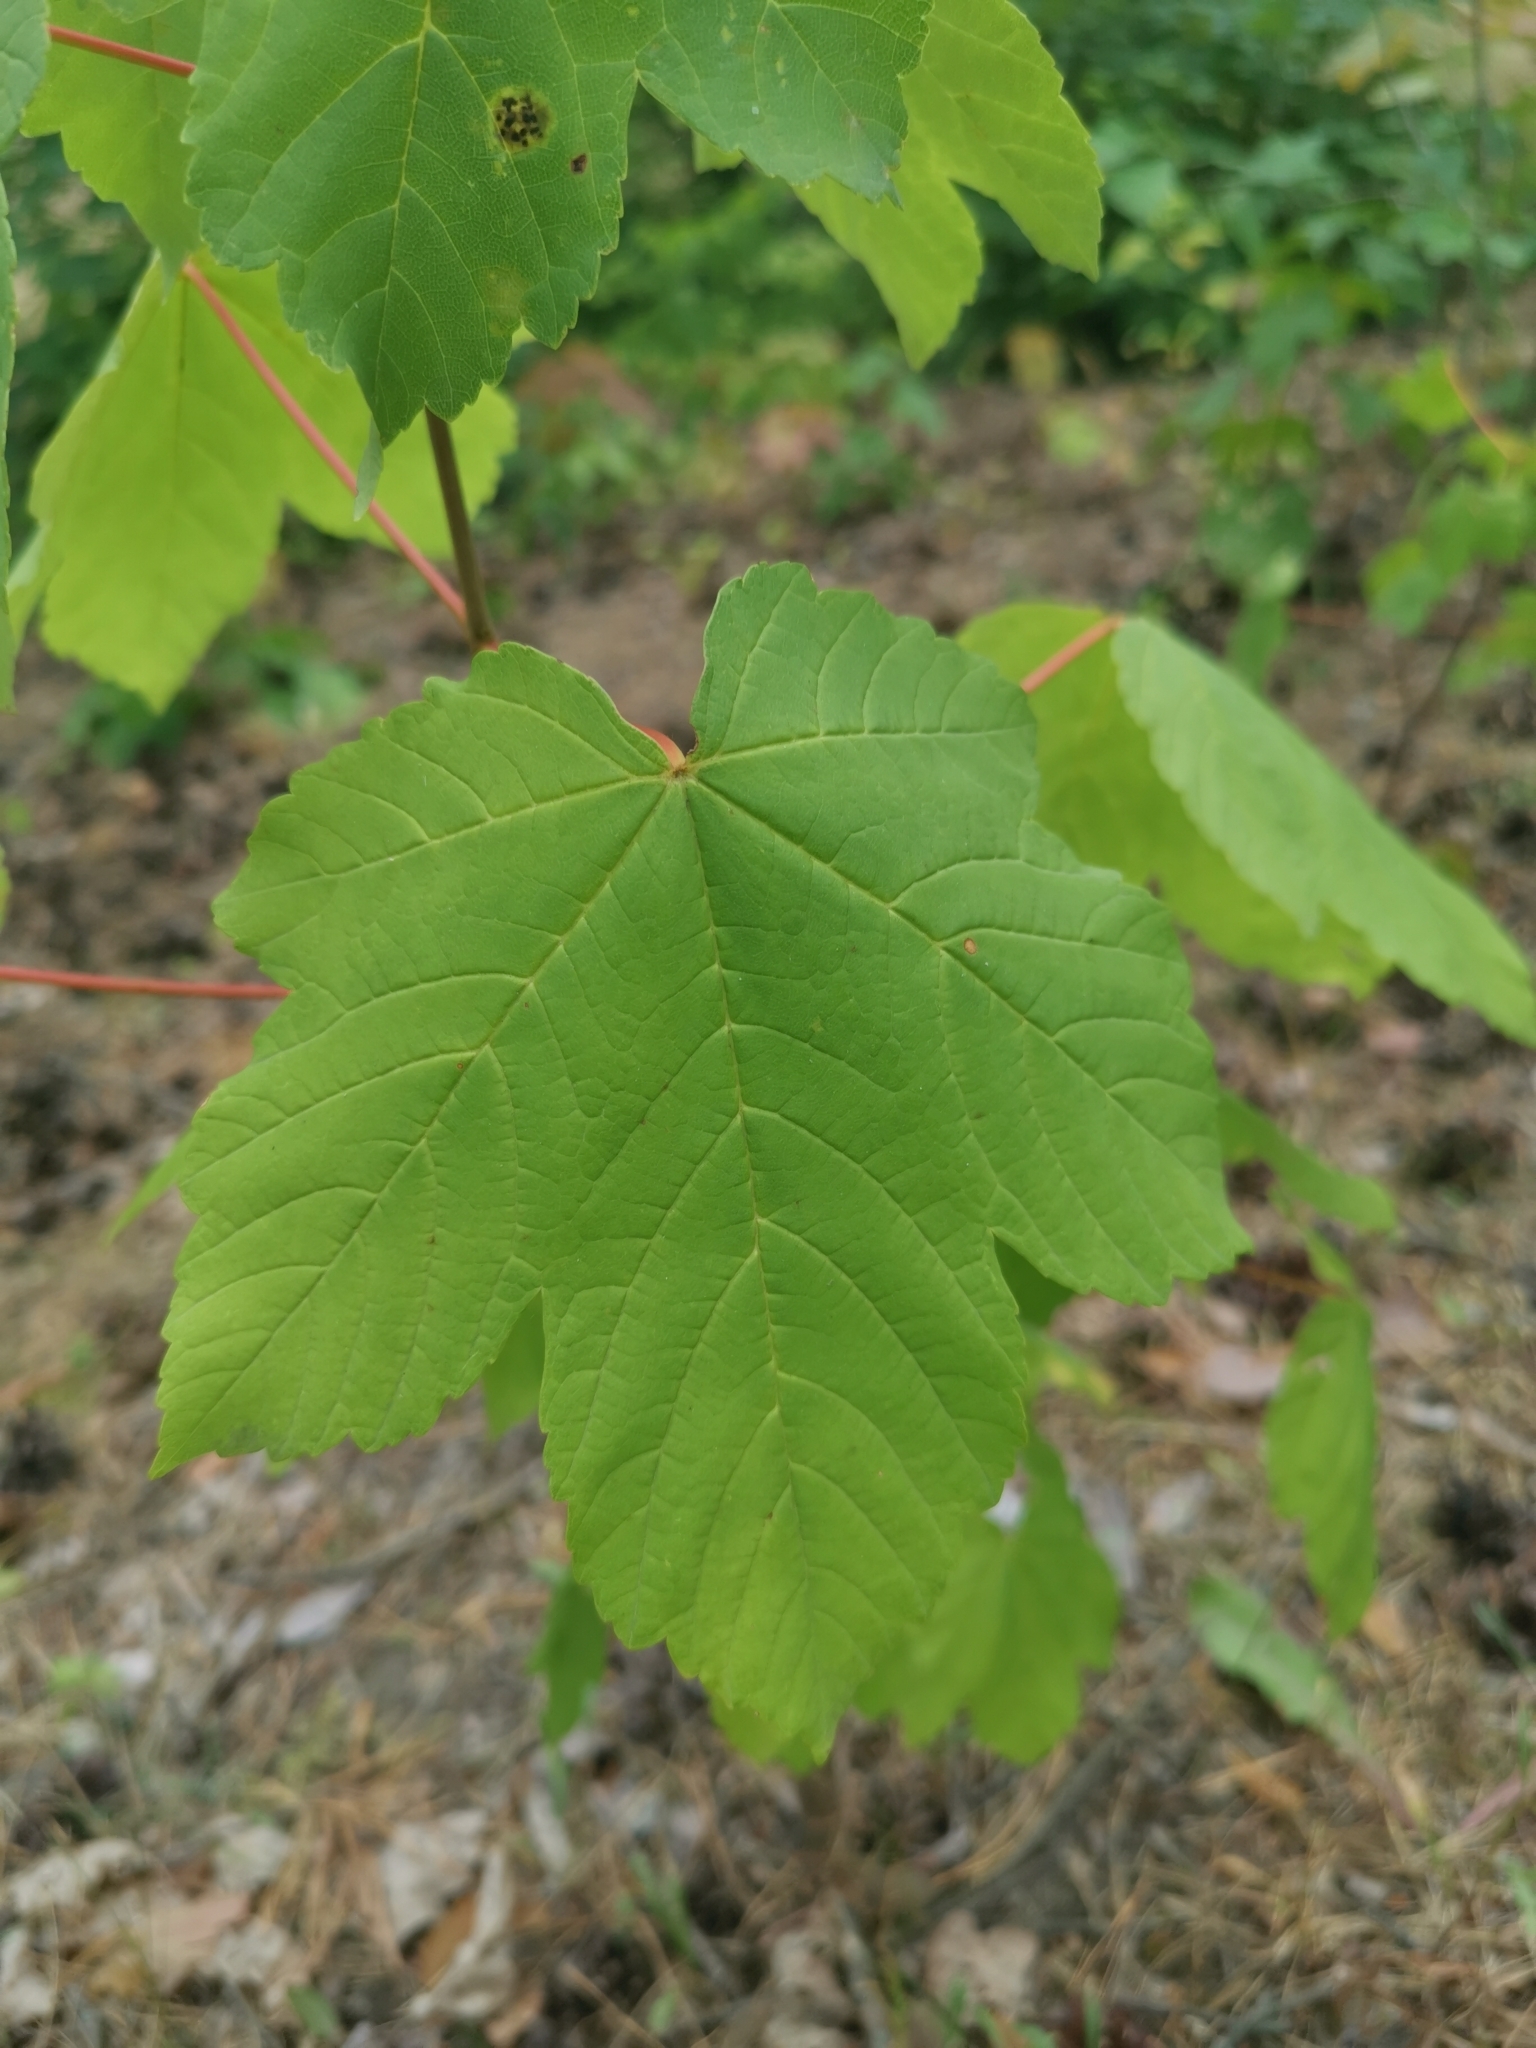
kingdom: Plantae
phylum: Tracheophyta
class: Magnoliopsida
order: Sapindales
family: Sapindaceae
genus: Acer
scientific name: Acer pseudoplatanus
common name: Sycamore
